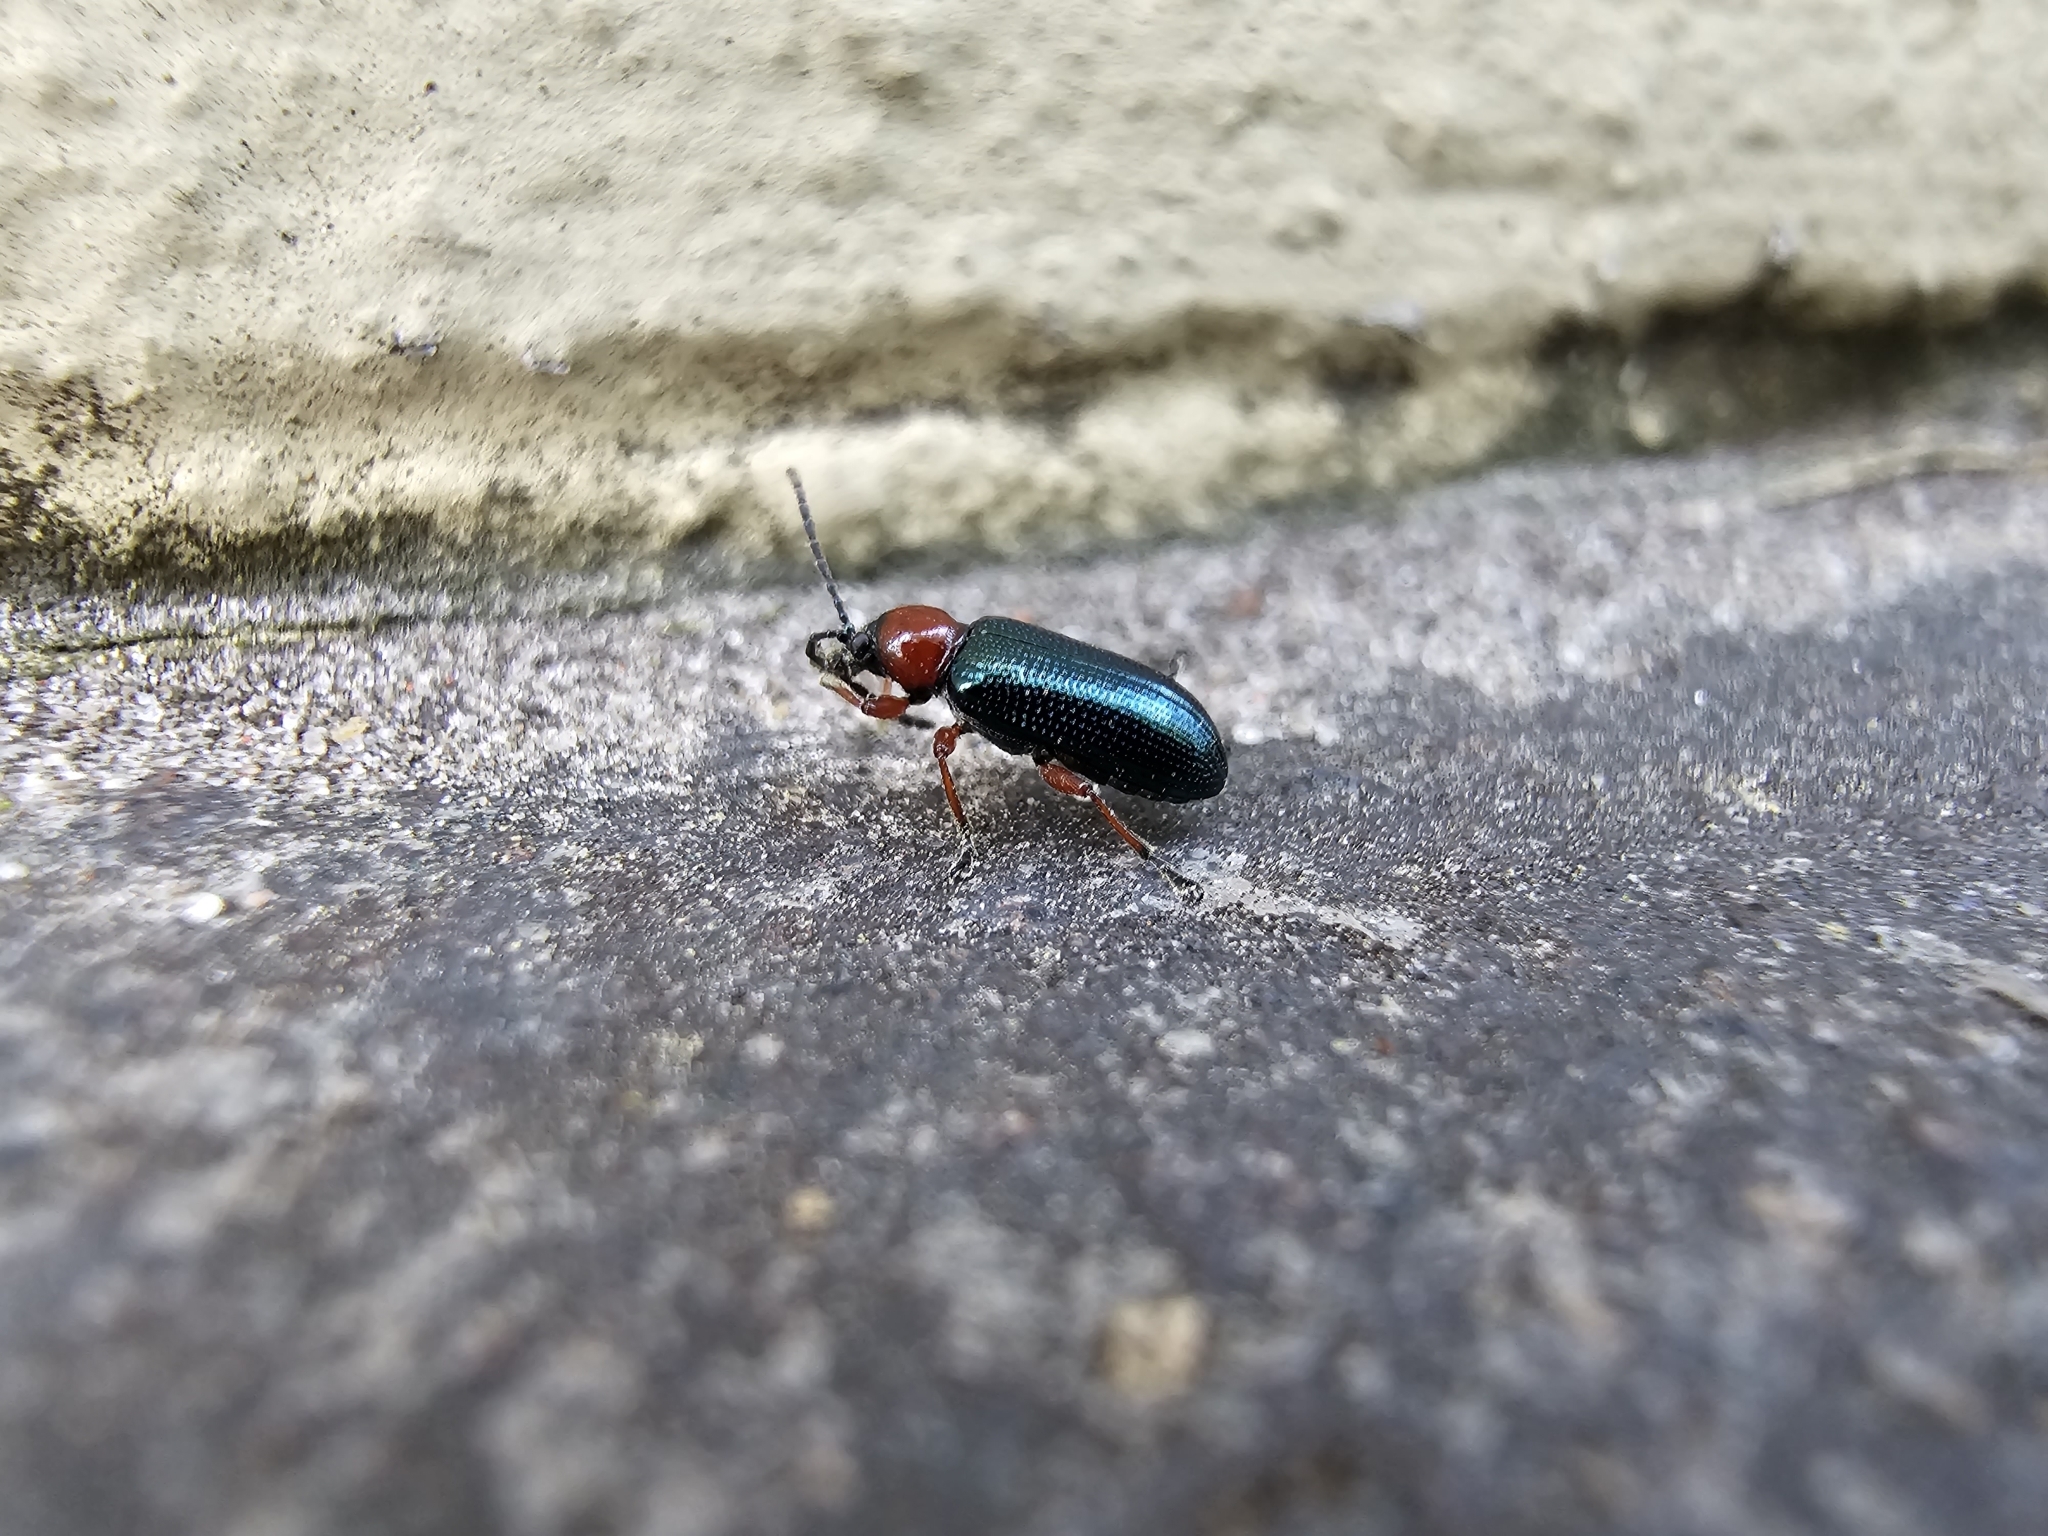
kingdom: Animalia
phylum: Arthropoda
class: Insecta
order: Coleoptera
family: Chrysomelidae
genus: Oulema
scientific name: Oulema
